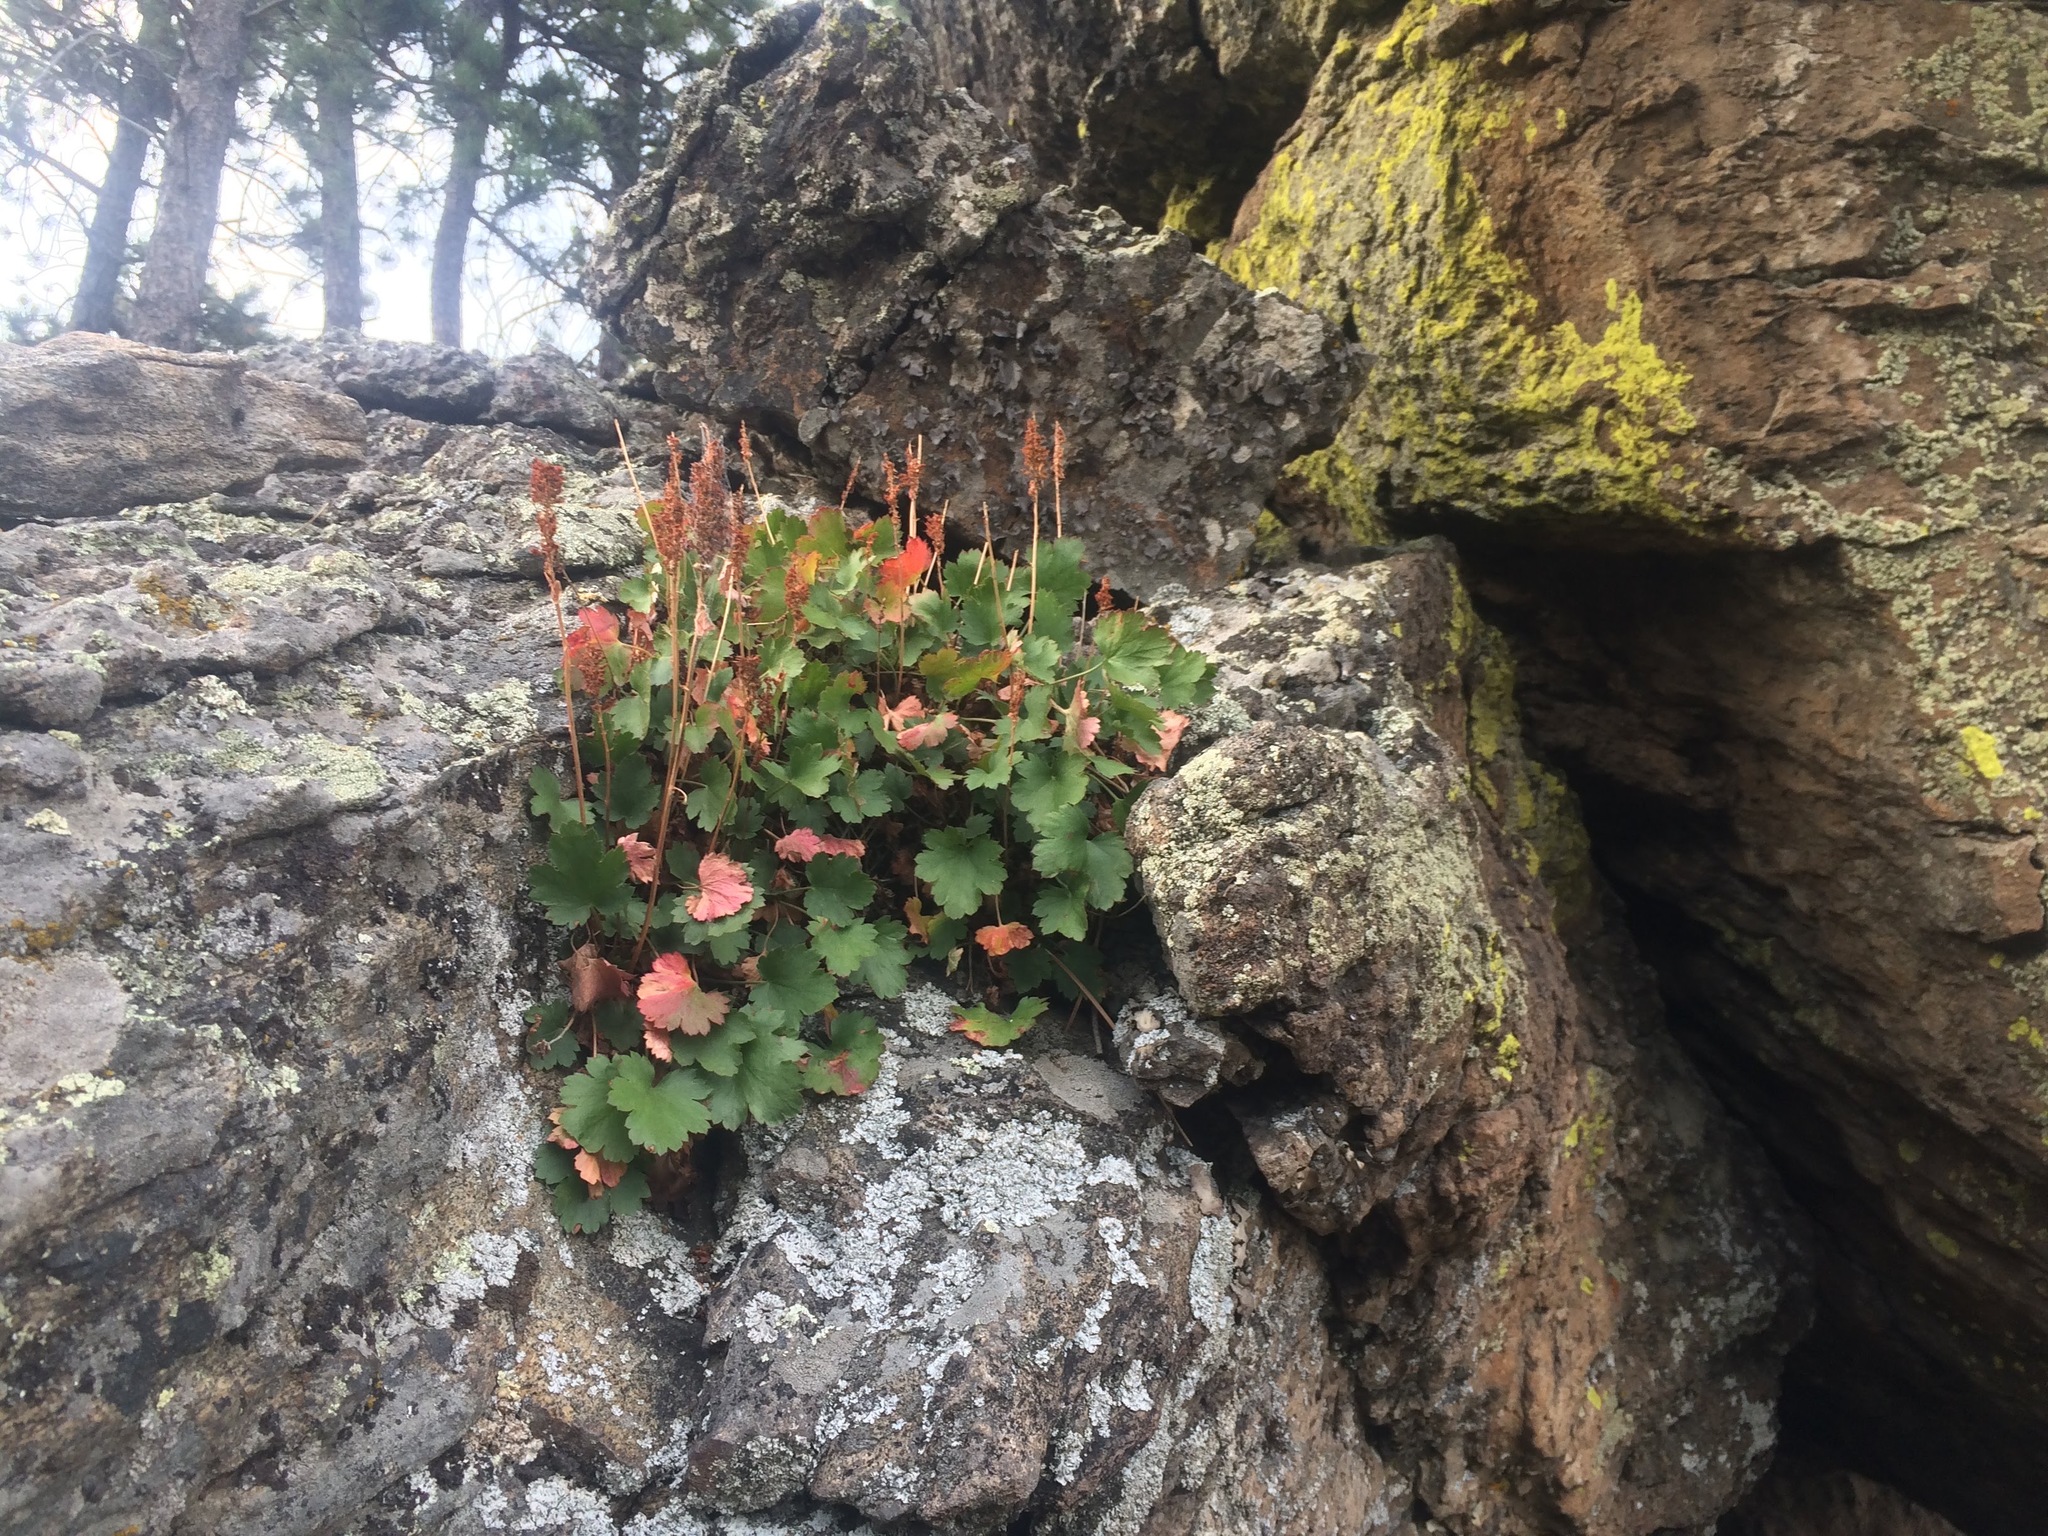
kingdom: Plantae
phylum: Tracheophyta
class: Magnoliopsida
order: Saxifragales
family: Saxifragaceae
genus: Heuchera
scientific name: Heuchera bracteata
